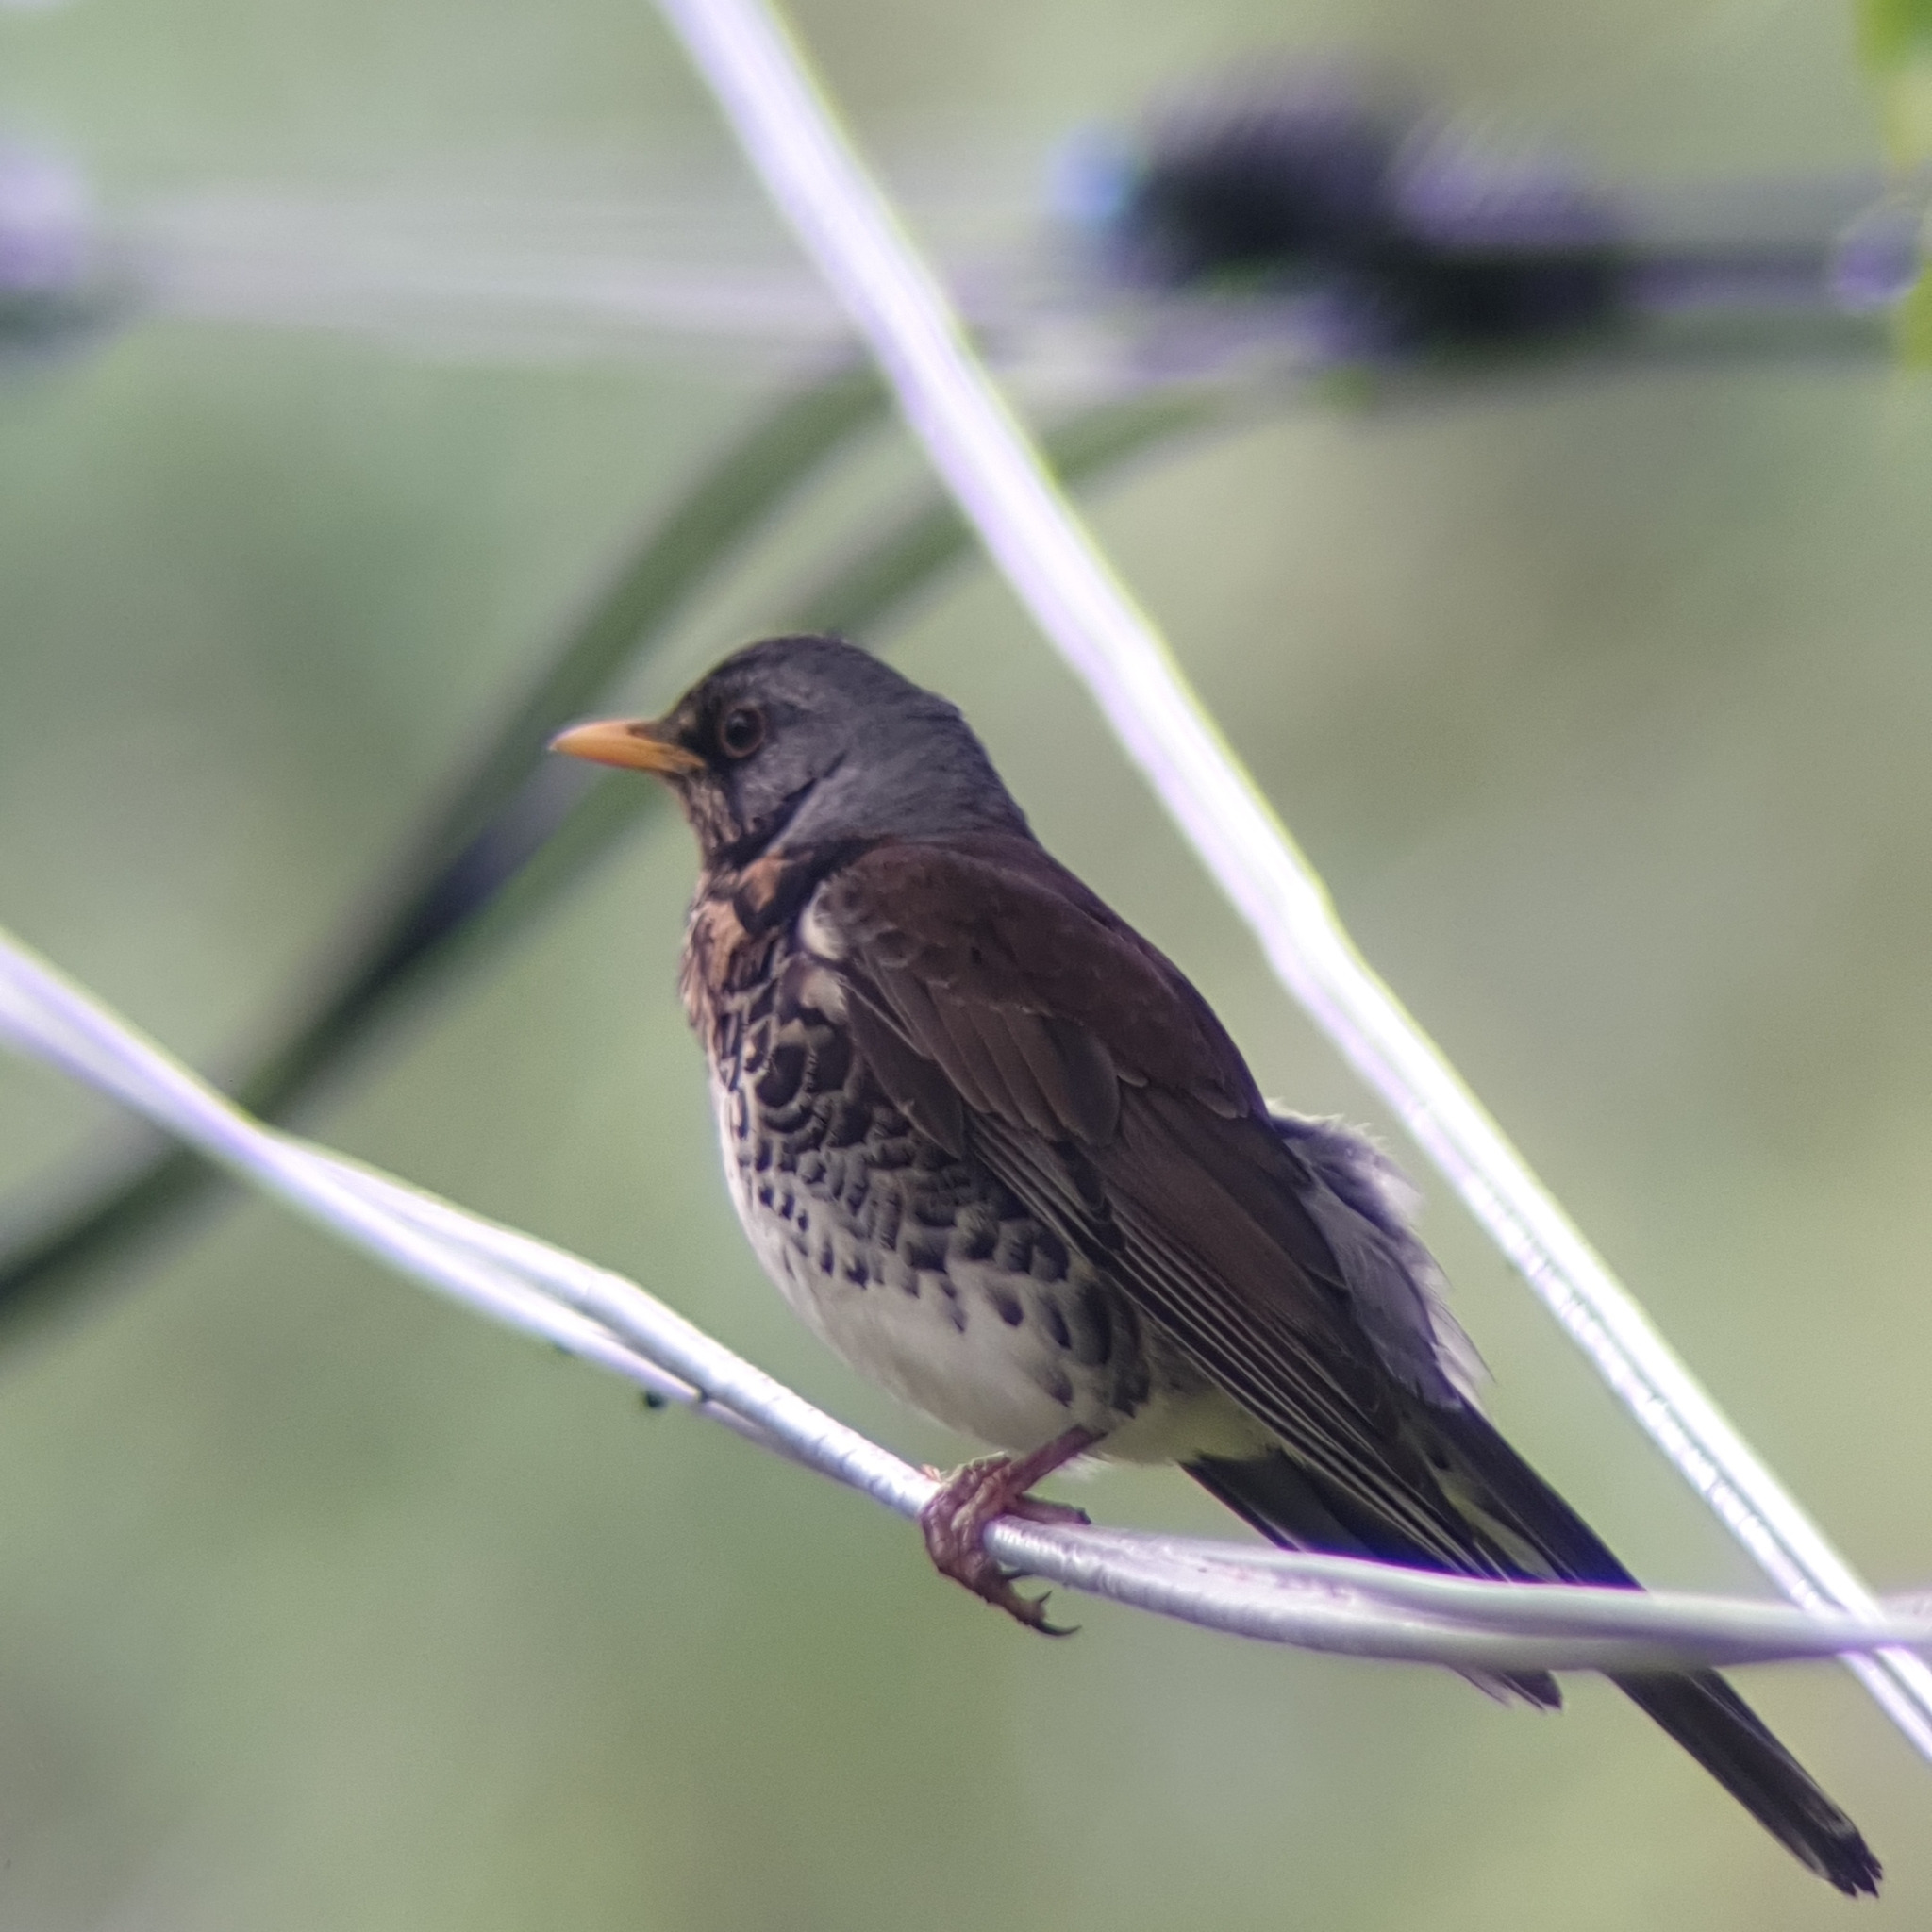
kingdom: Animalia
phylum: Chordata
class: Aves
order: Passeriformes
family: Turdidae
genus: Turdus
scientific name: Turdus pilaris
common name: Fieldfare
